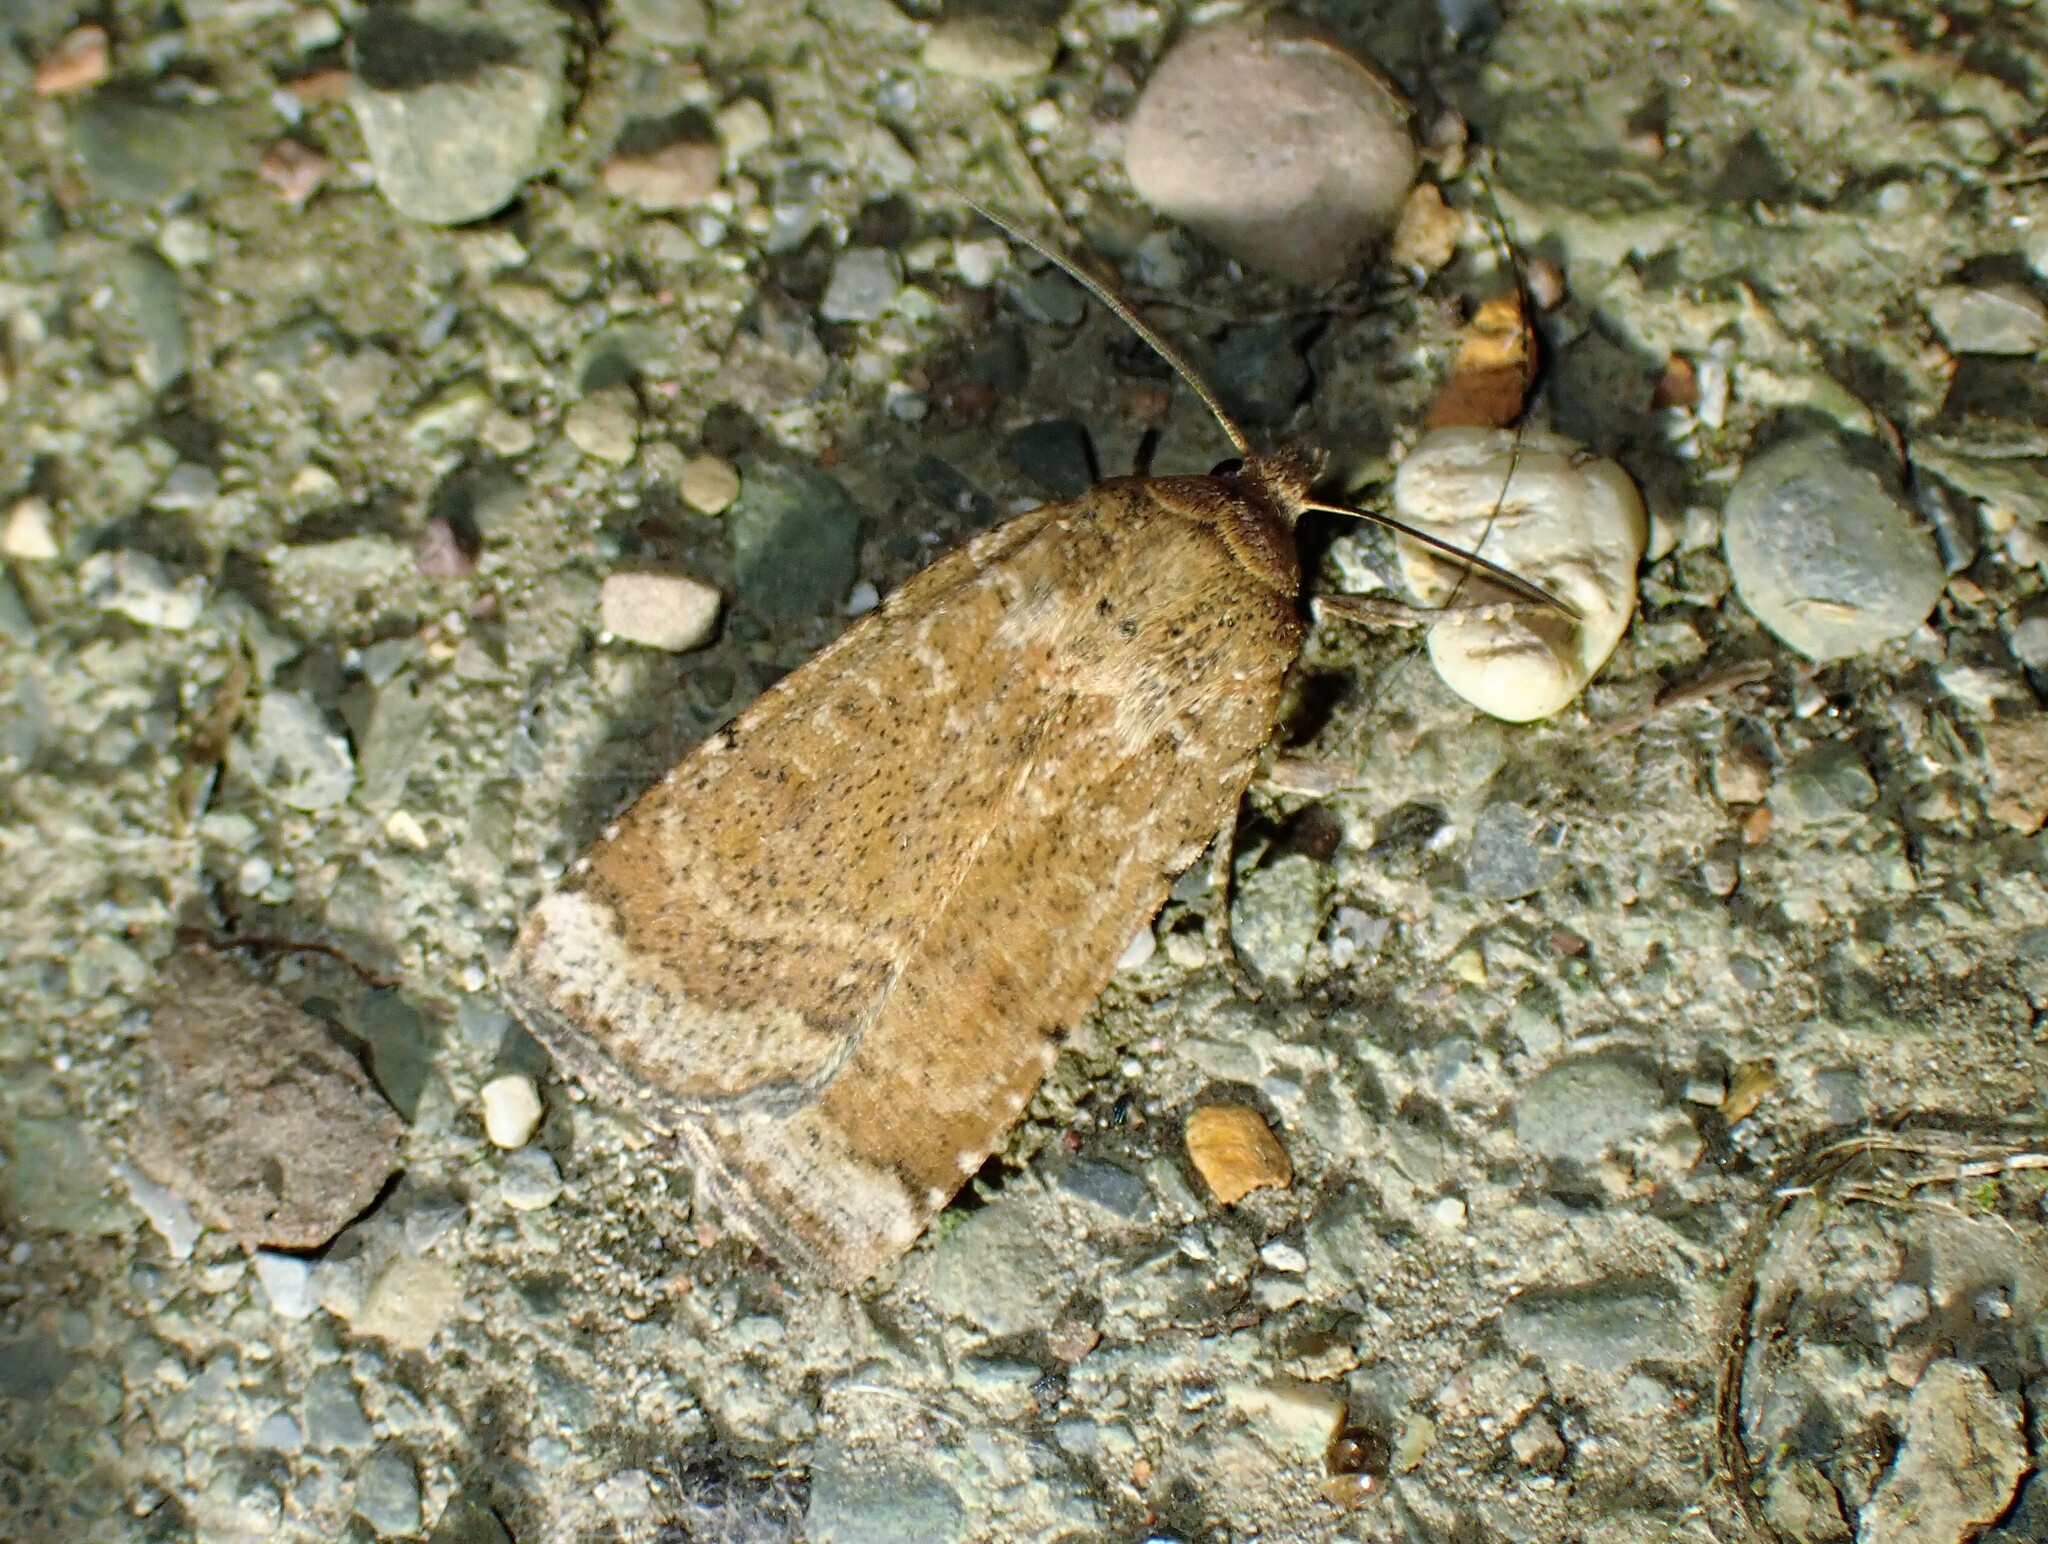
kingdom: Animalia
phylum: Arthropoda
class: Insecta
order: Lepidoptera
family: Noctuidae
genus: Abagrotis
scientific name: Abagrotis nefascia
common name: Coastal heathland cutworm
